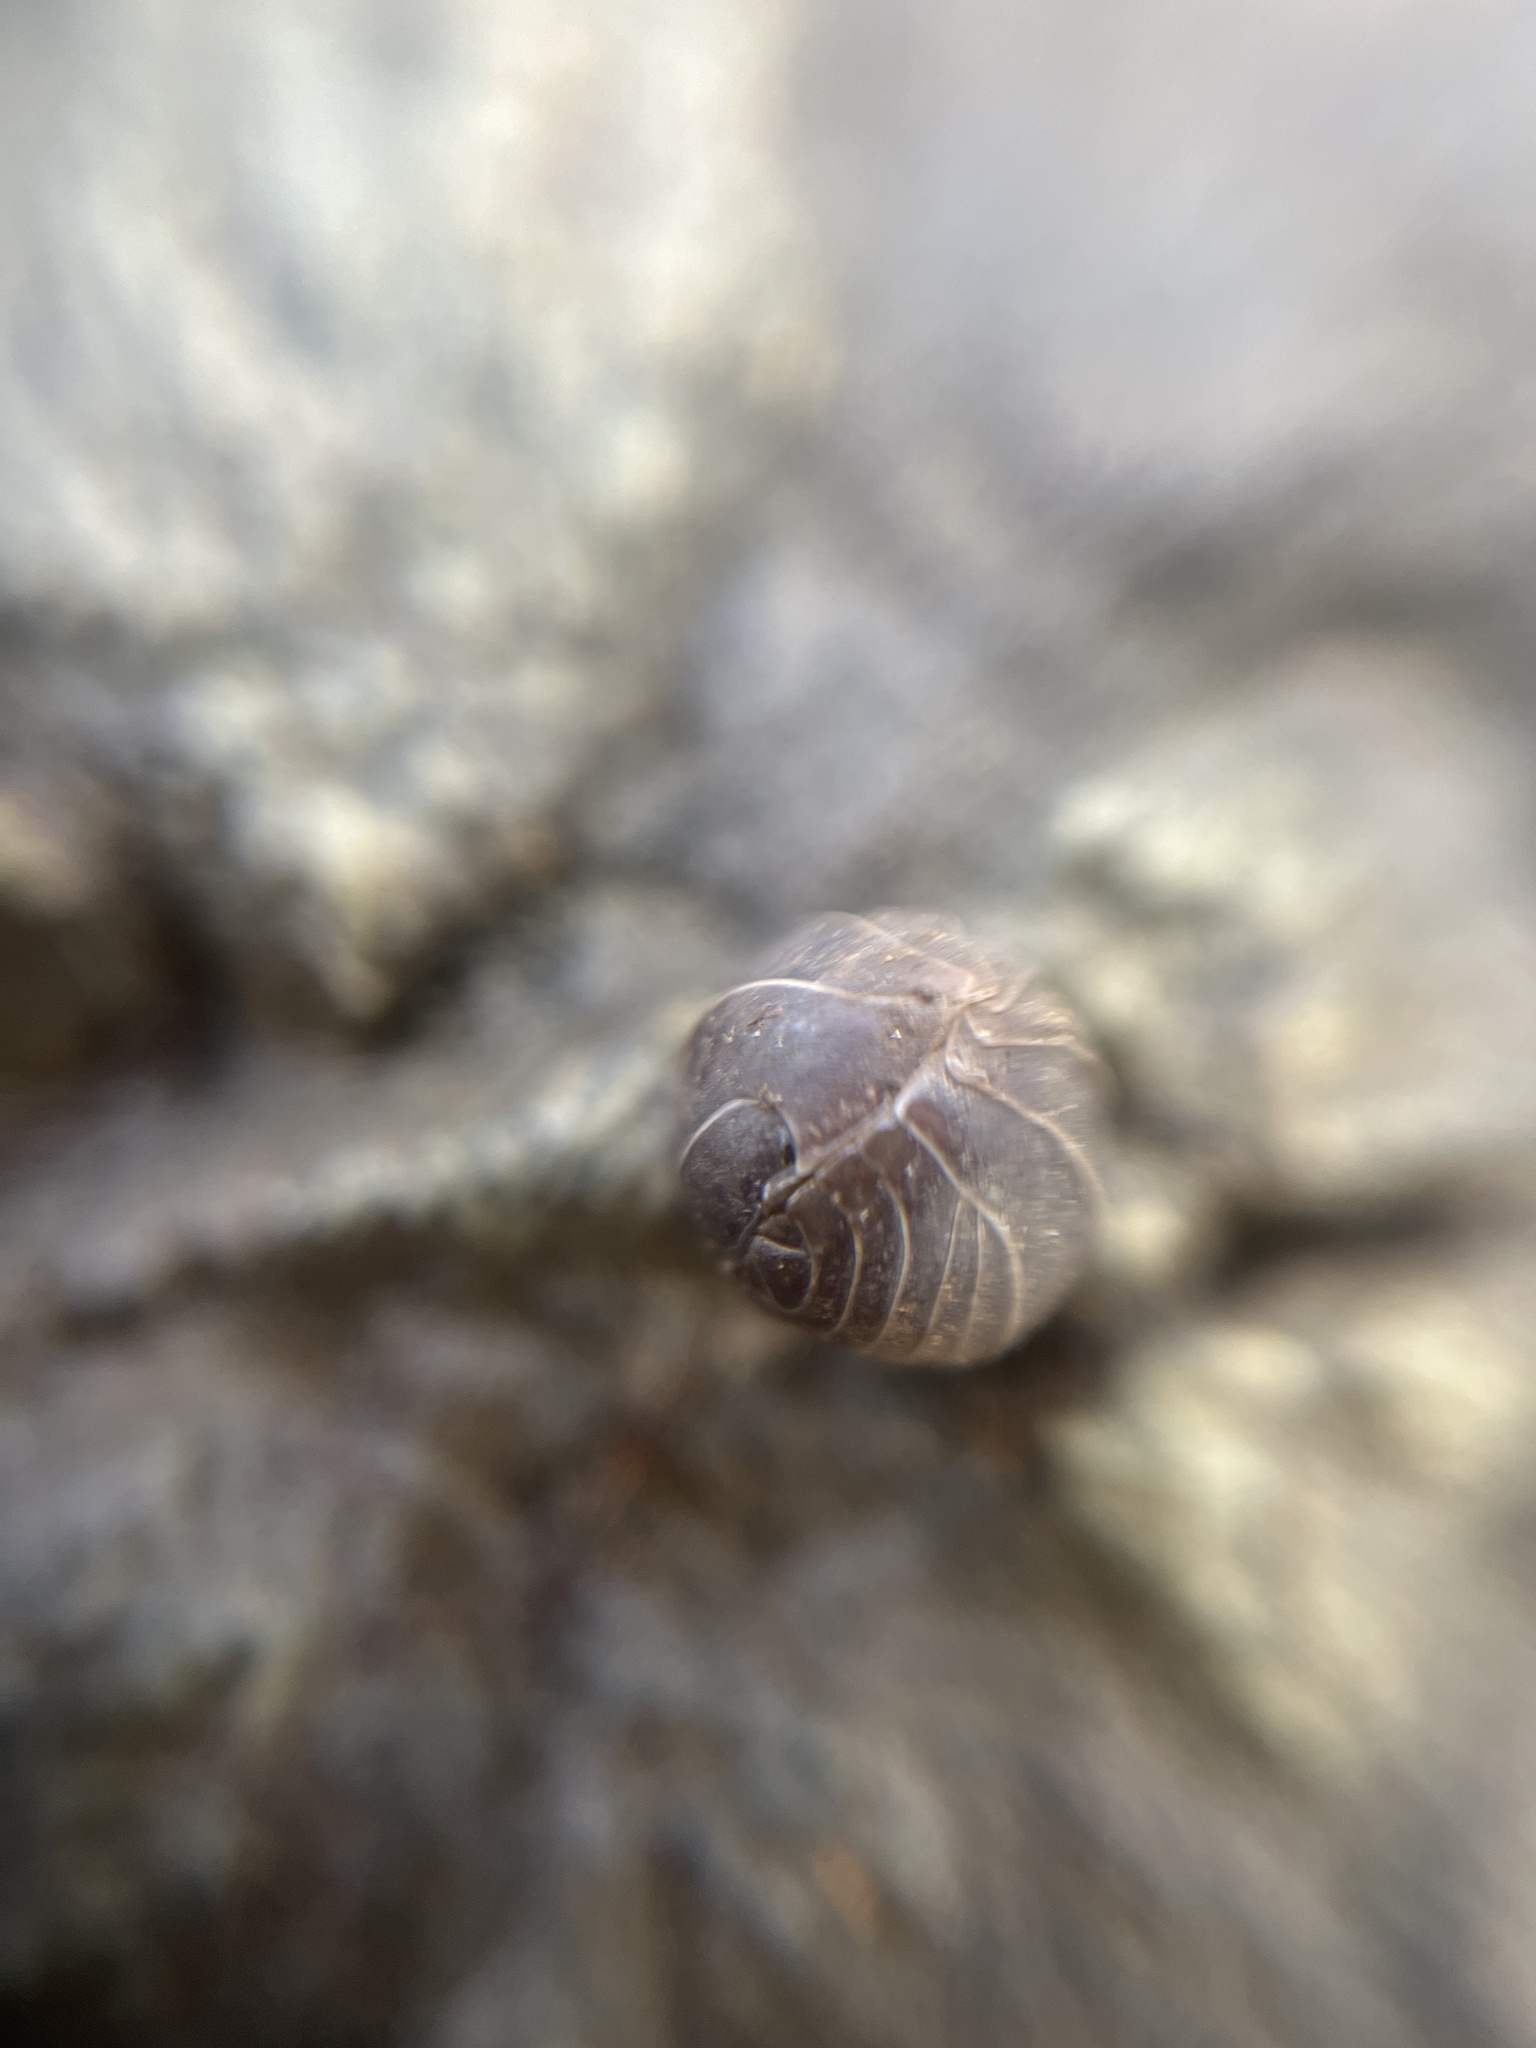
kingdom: Animalia
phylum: Arthropoda
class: Malacostraca
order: Isopoda
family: Armadillidiidae
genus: Armadillidium
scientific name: Armadillidium vulgare
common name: Common pill woodlouse
